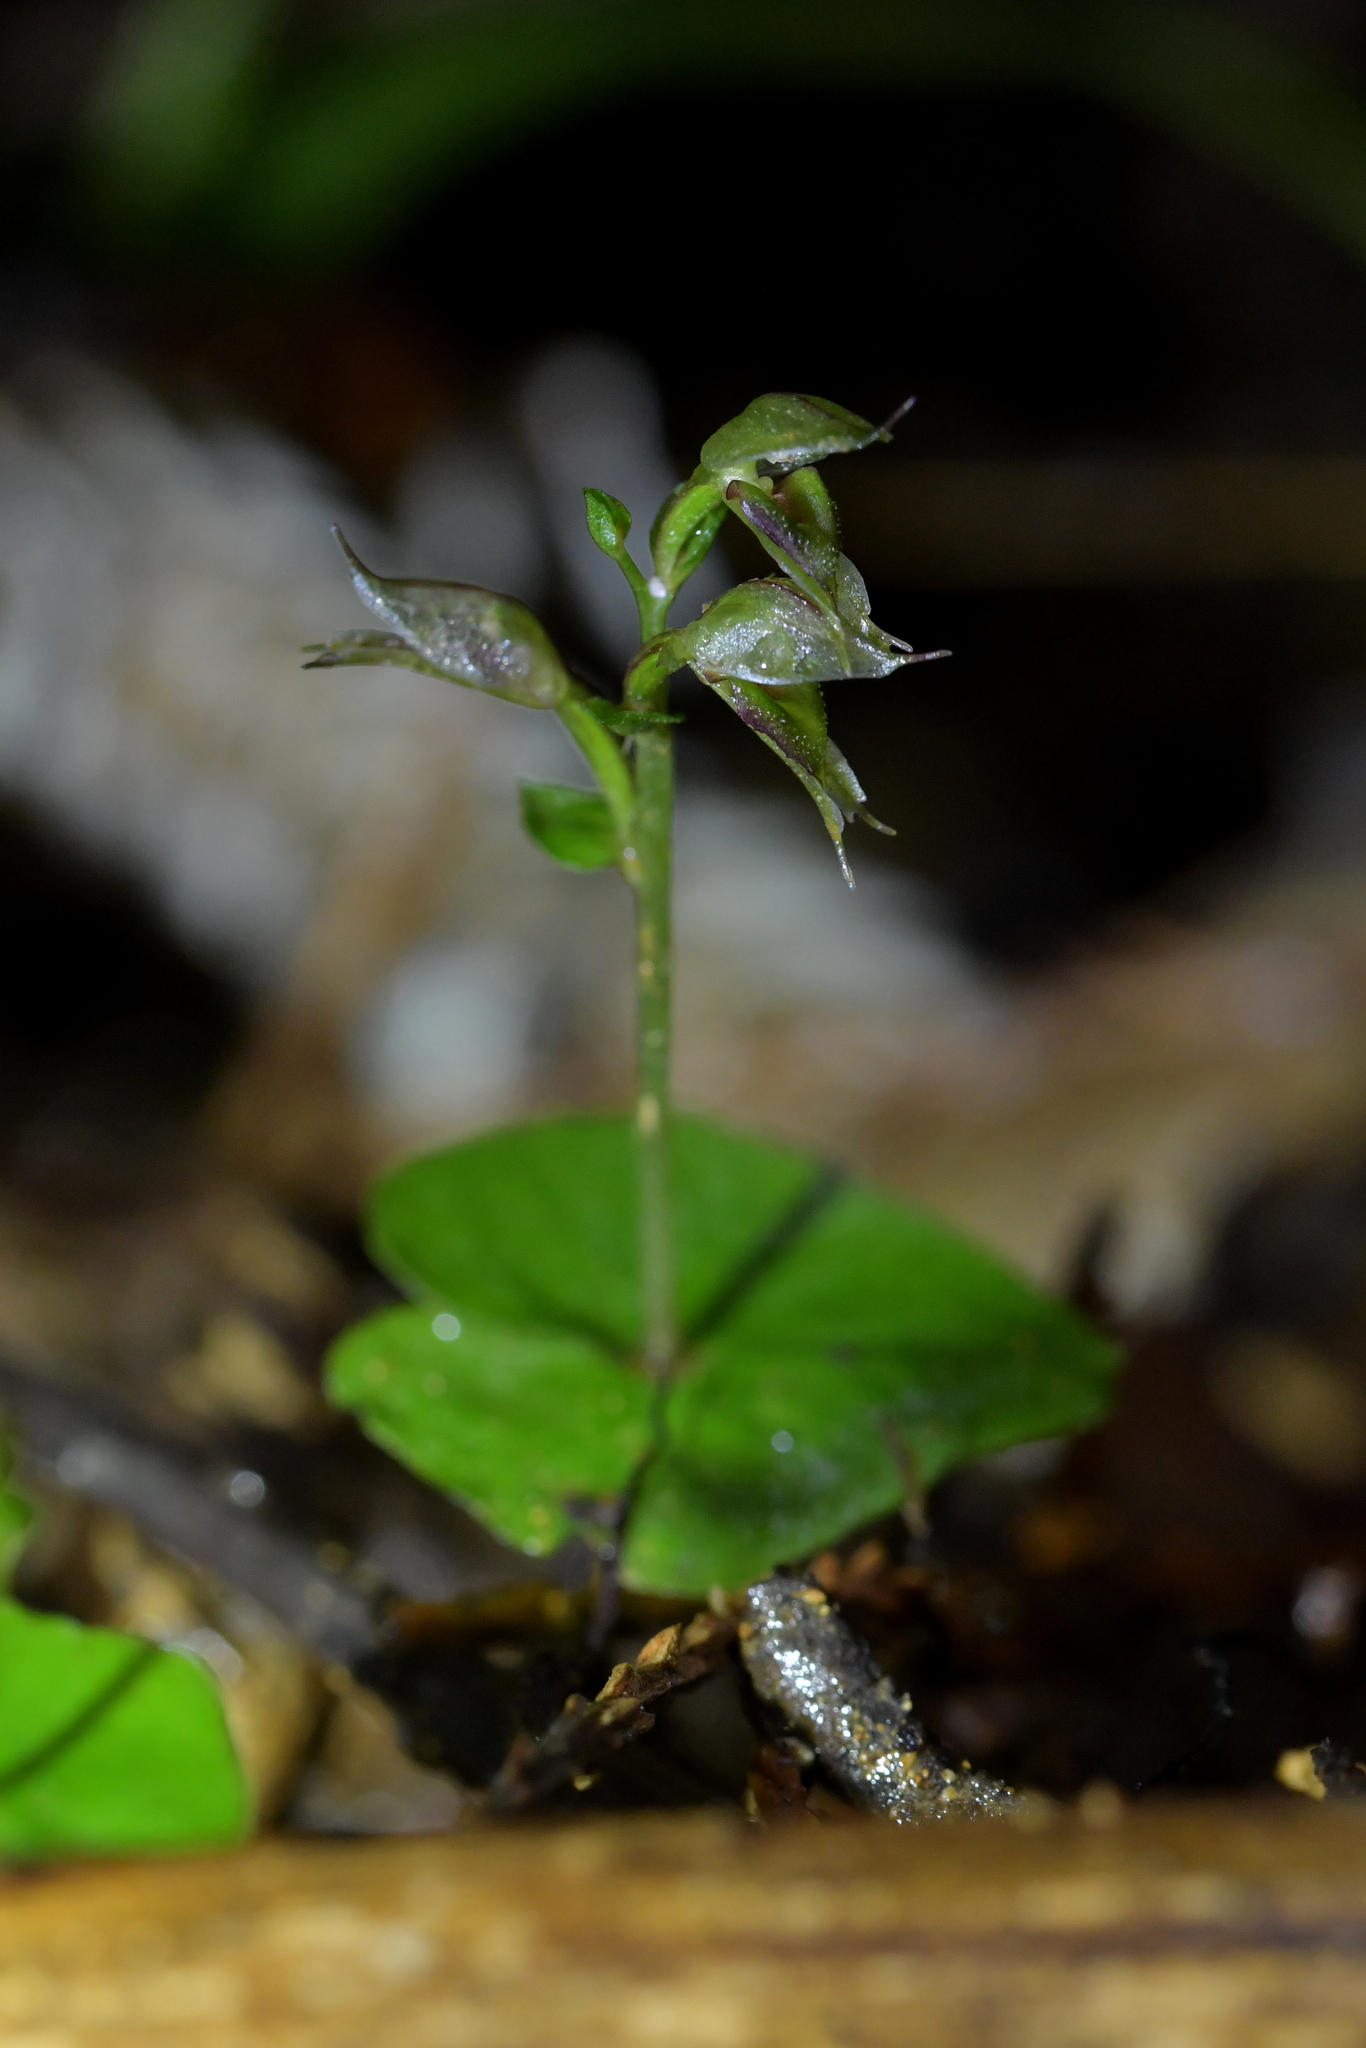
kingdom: Plantae
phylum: Tracheophyta
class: Liliopsida
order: Asparagales
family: Orchidaceae
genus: Acianthus
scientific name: Acianthus sinclairii
